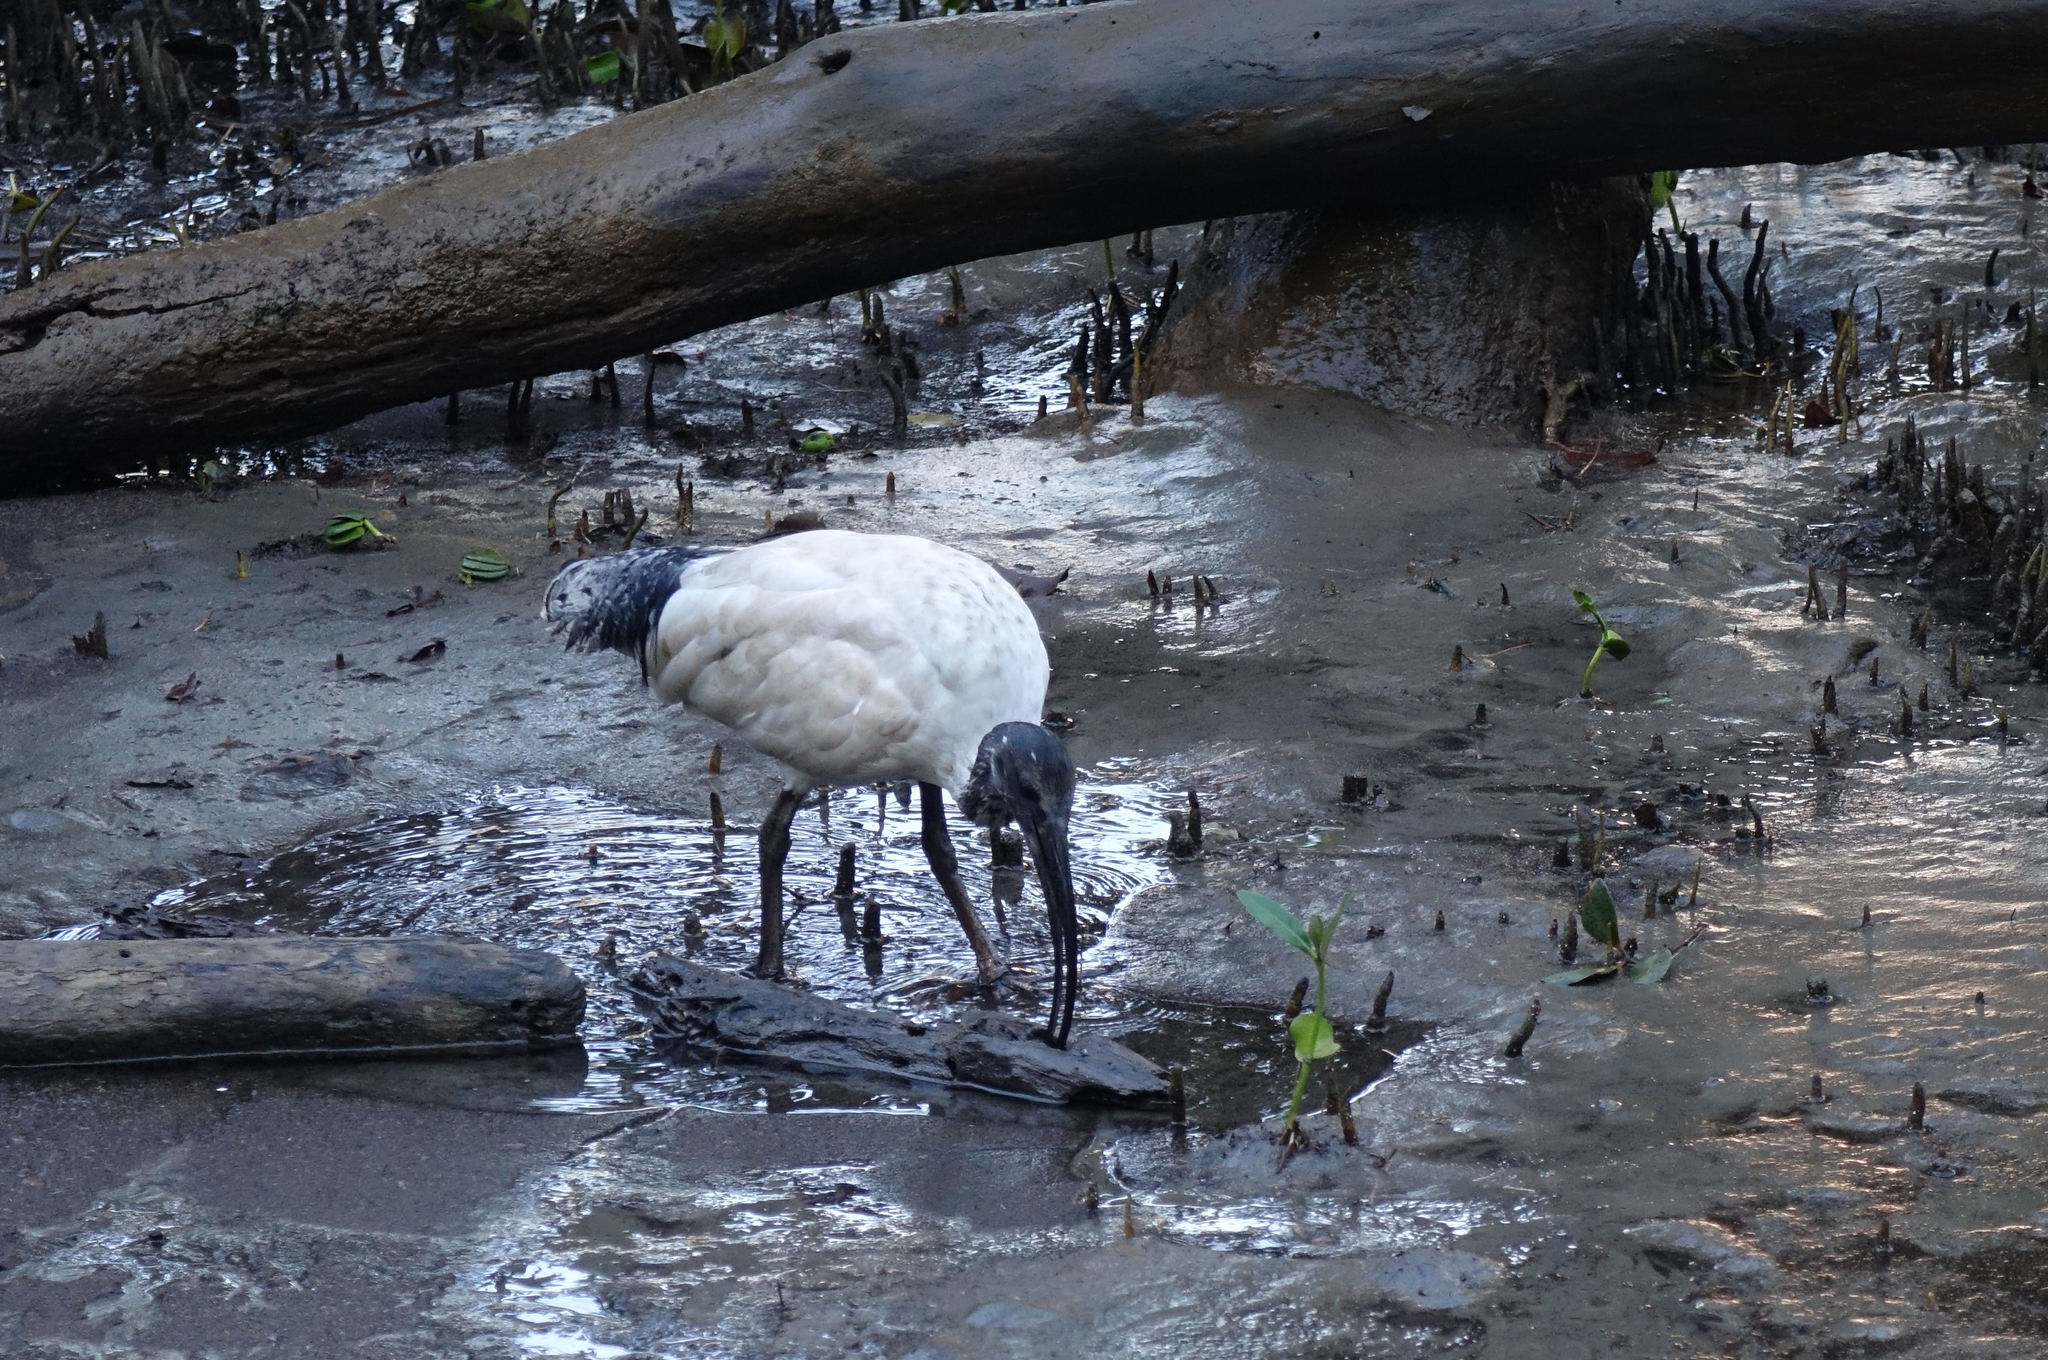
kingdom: Animalia
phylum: Chordata
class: Aves
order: Pelecaniformes
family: Threskiornithidae
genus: Threskiornis
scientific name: Threskiornis molucca
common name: Australian white ibis
